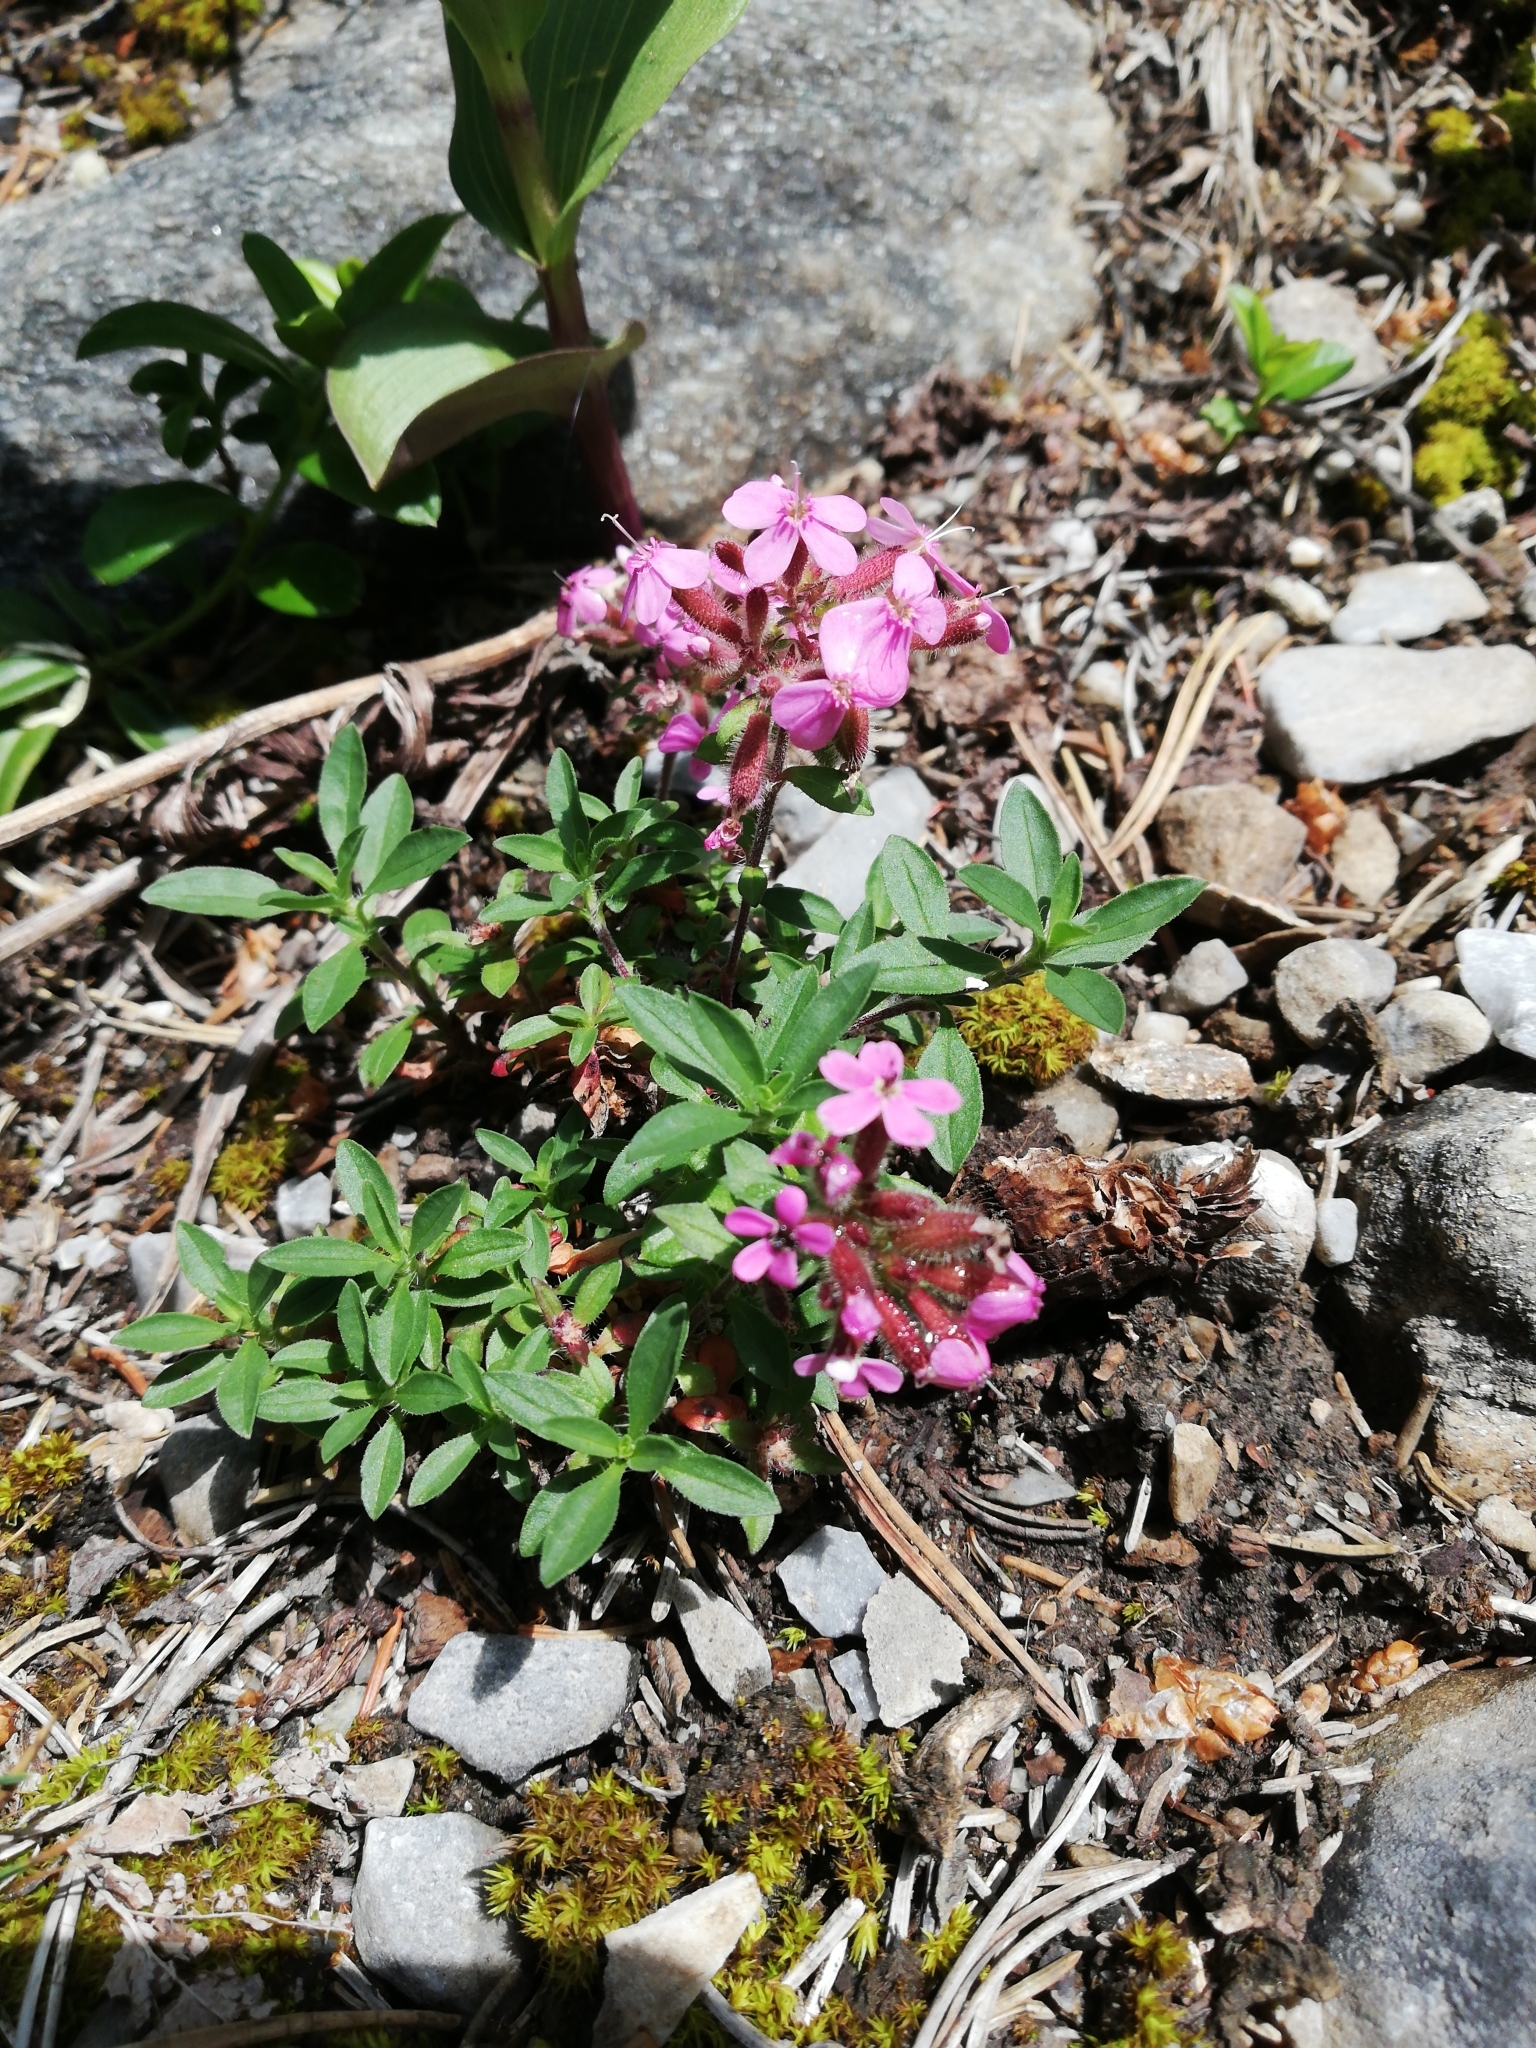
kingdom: Plantae
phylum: Tracheophyta
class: Magnoliopsida
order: Caryophyllales
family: Caryophyllaceae
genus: Saponaria
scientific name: Saponaria ocymoides
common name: Rock soapwort
